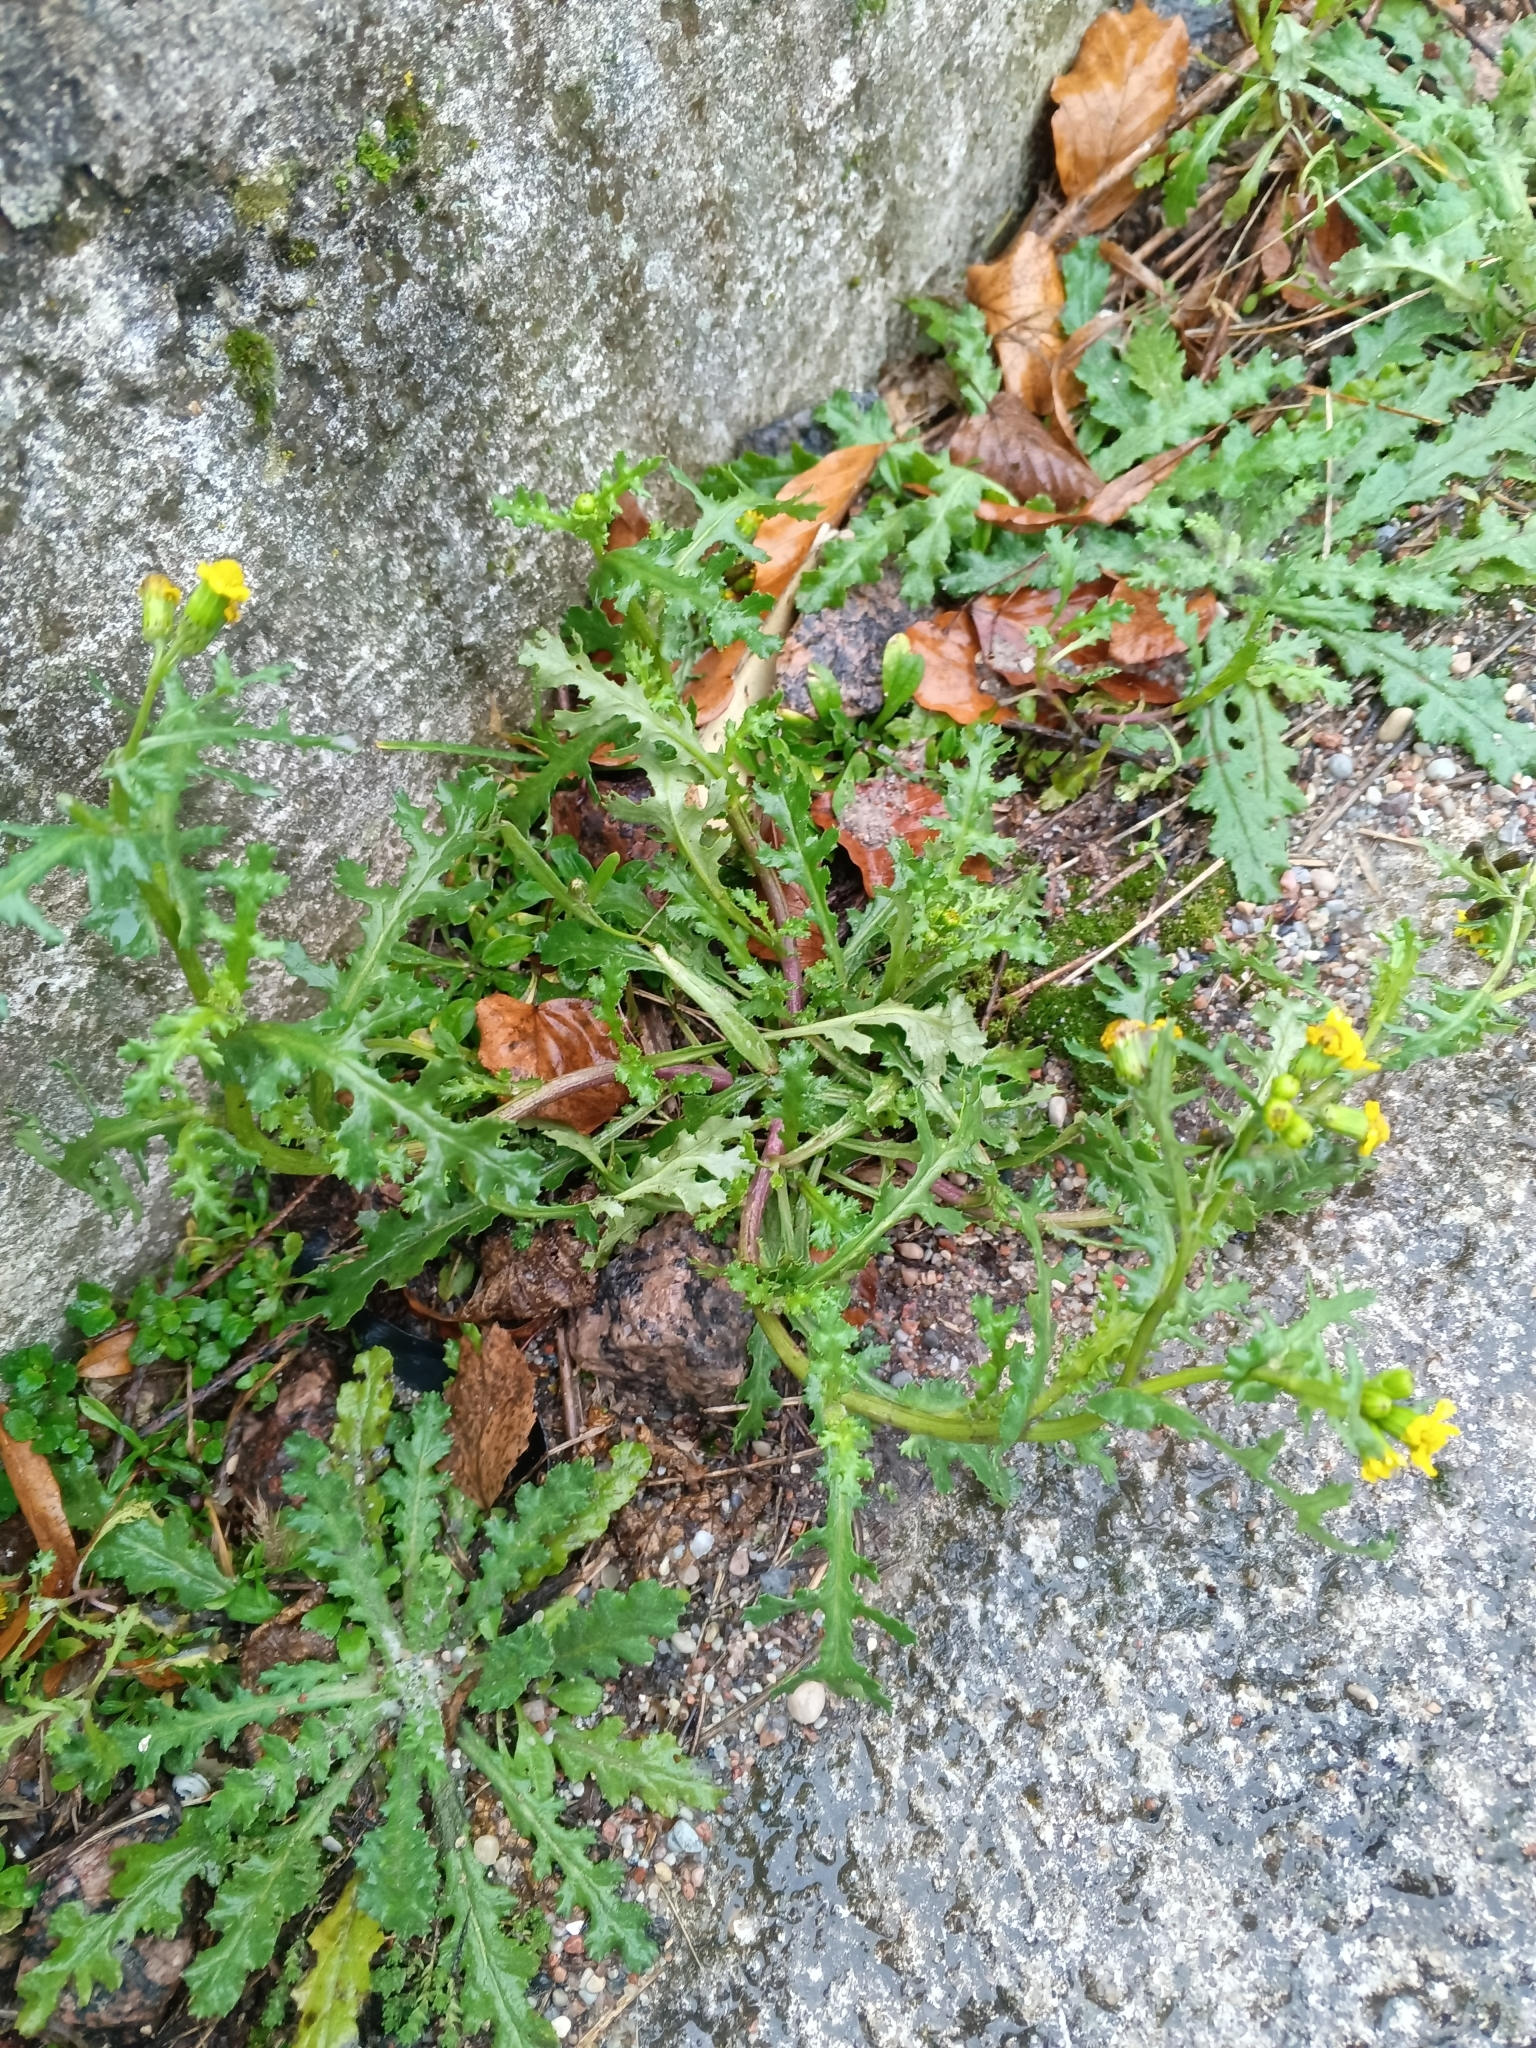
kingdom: Plantae
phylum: Tracheophyta
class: Magnoliopsida
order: Asterales
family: Asteraceae
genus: Senecio
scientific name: Senecio vernalis
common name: Eastern groundsel
